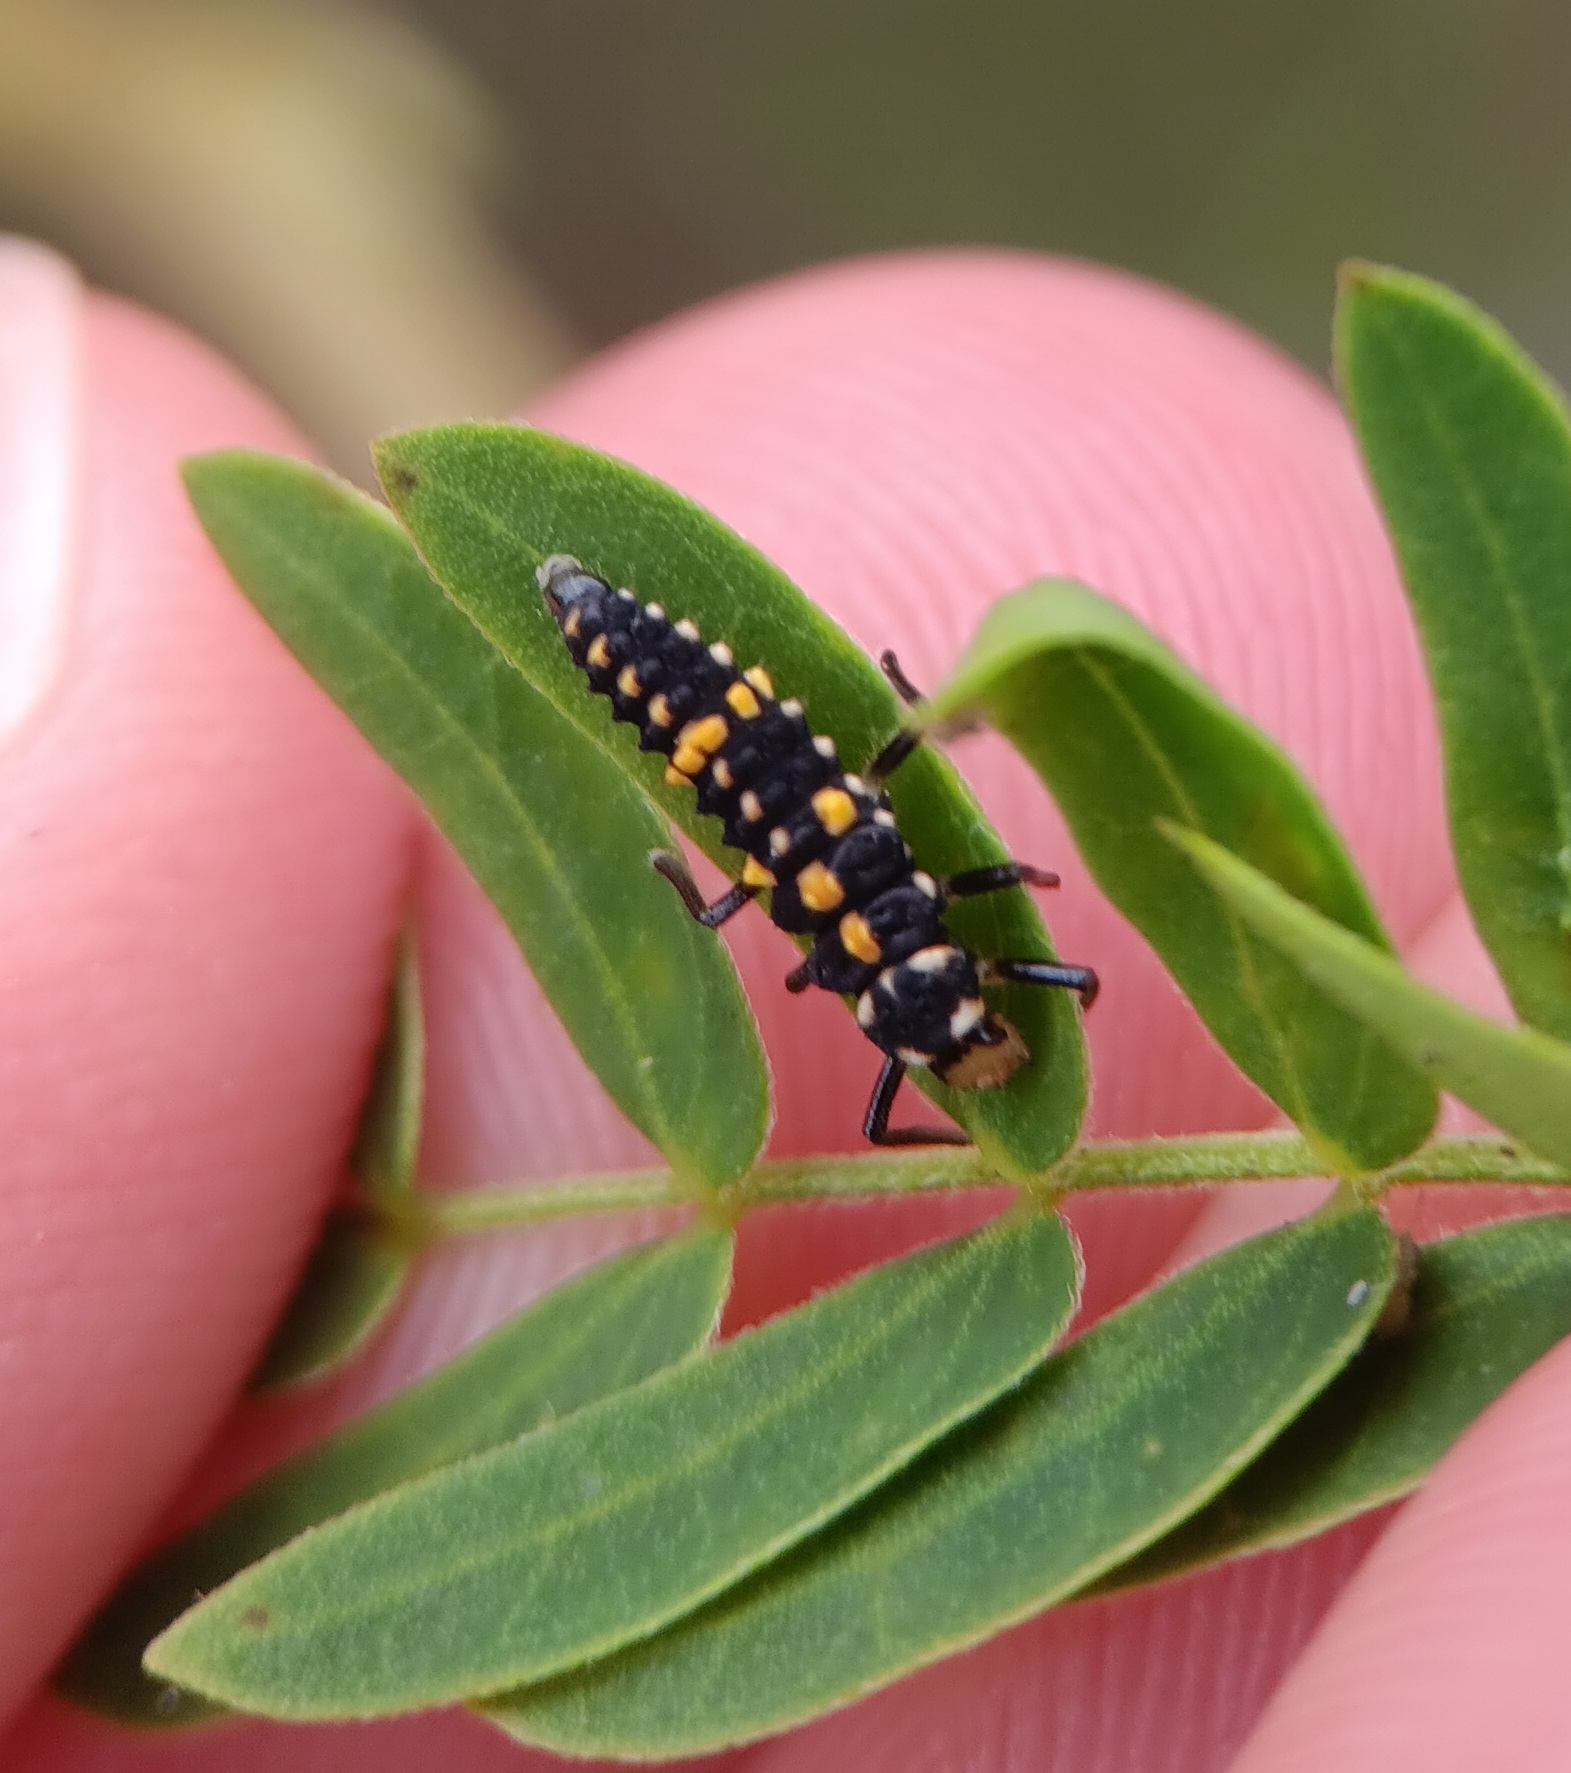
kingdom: Animalia
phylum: Arthropoda
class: Insecta
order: Coleoptera
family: Coccinellidae
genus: Olla
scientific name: Olla v-nigrum
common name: Ashy gray lady beetle
